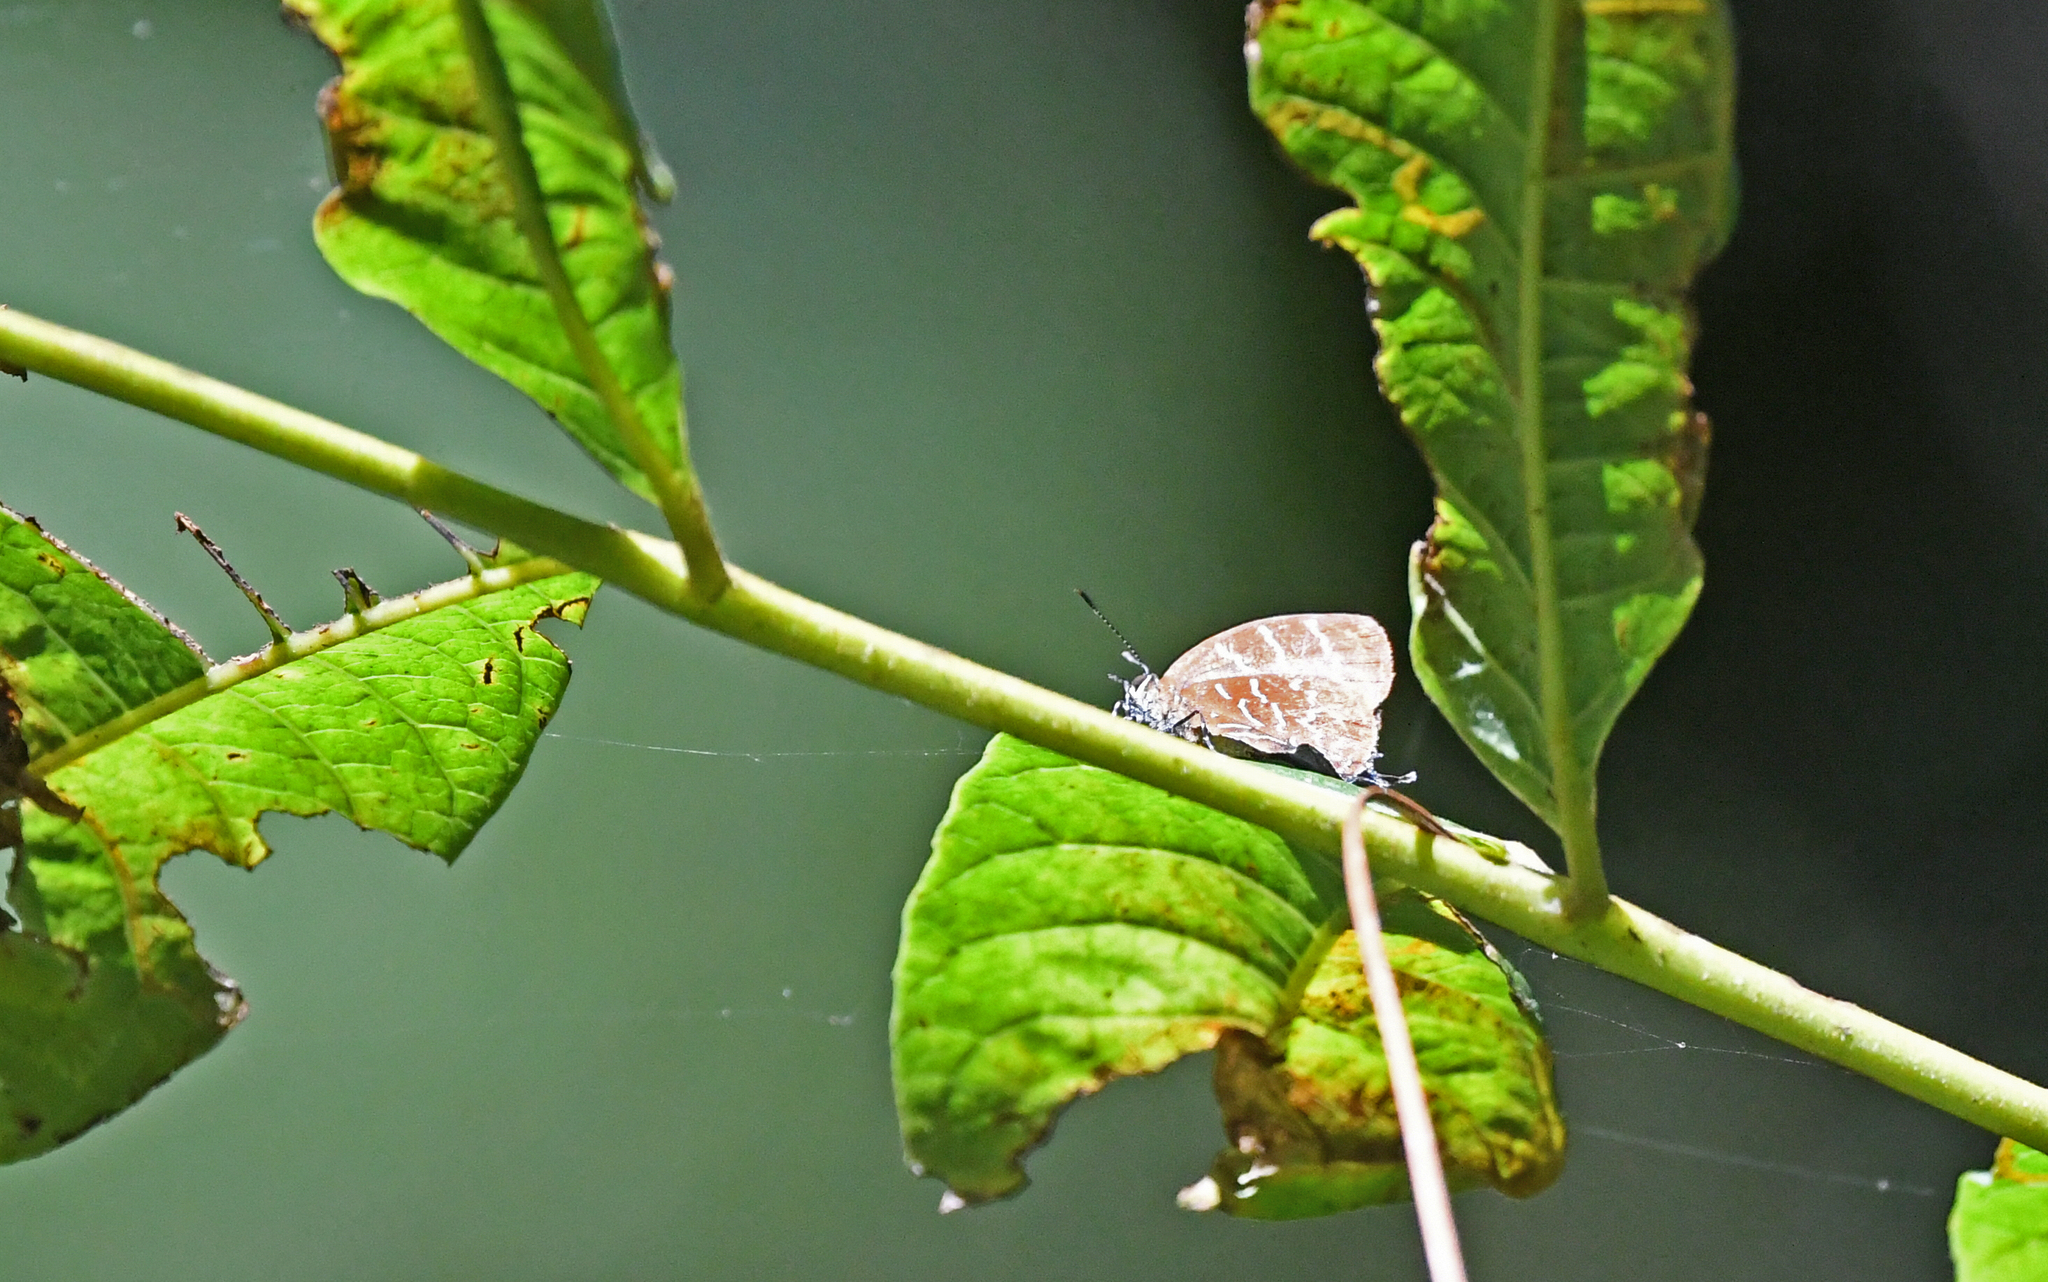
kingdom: Animalia
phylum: Arthropoda
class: Insecta
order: Lepidoptera
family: Lycaenidae
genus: Micandra
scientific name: Micandra platyptera
